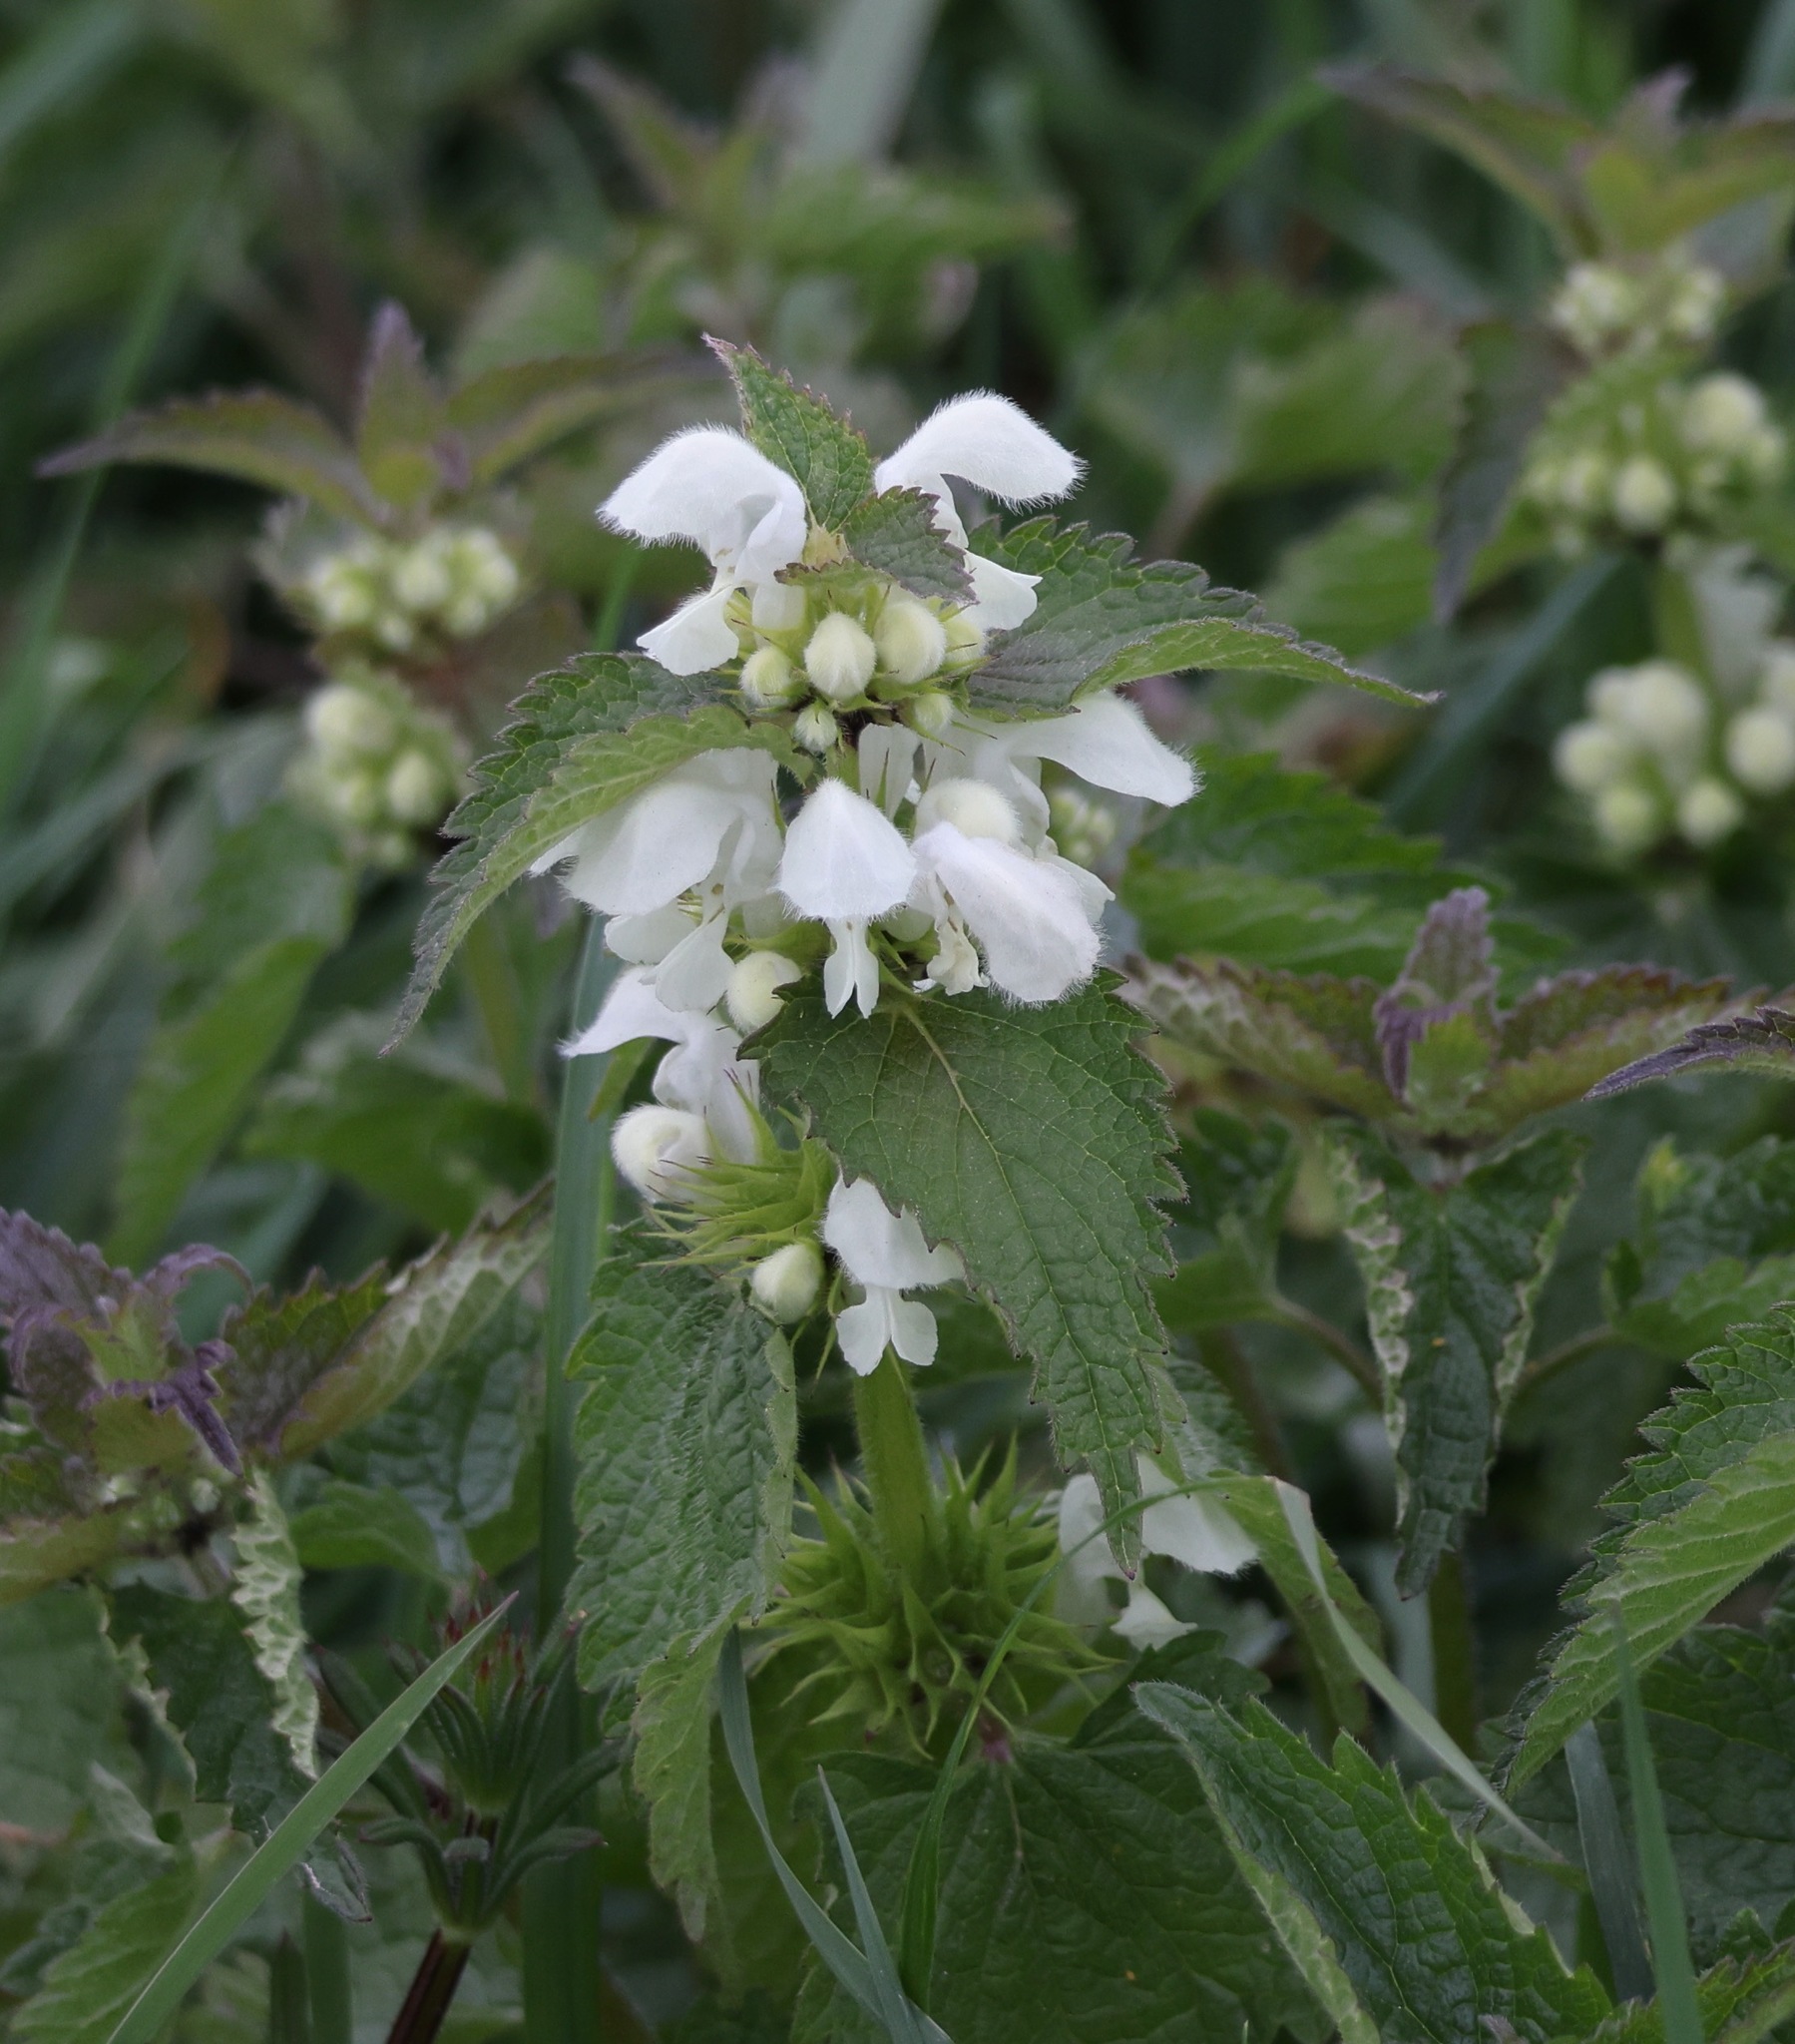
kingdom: Plantae
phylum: Tracheophyta
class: Magnoliopsida
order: Lamiales
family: Lamiaceae
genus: Lamium
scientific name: Lamium album
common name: White dead-nettle
